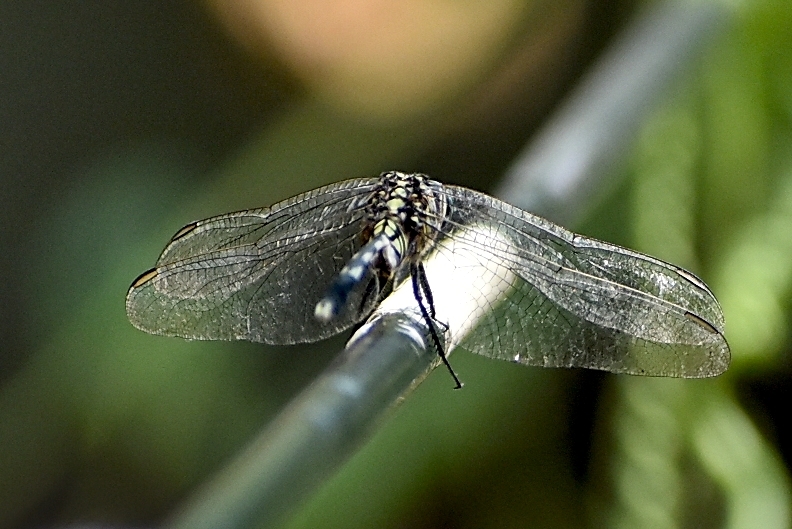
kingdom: Animalia
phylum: Arthropoda
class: Insecta
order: Odonata
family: Libellulidae
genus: Orthetrum
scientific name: Orthetrum sabina
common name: Slender skimmer
